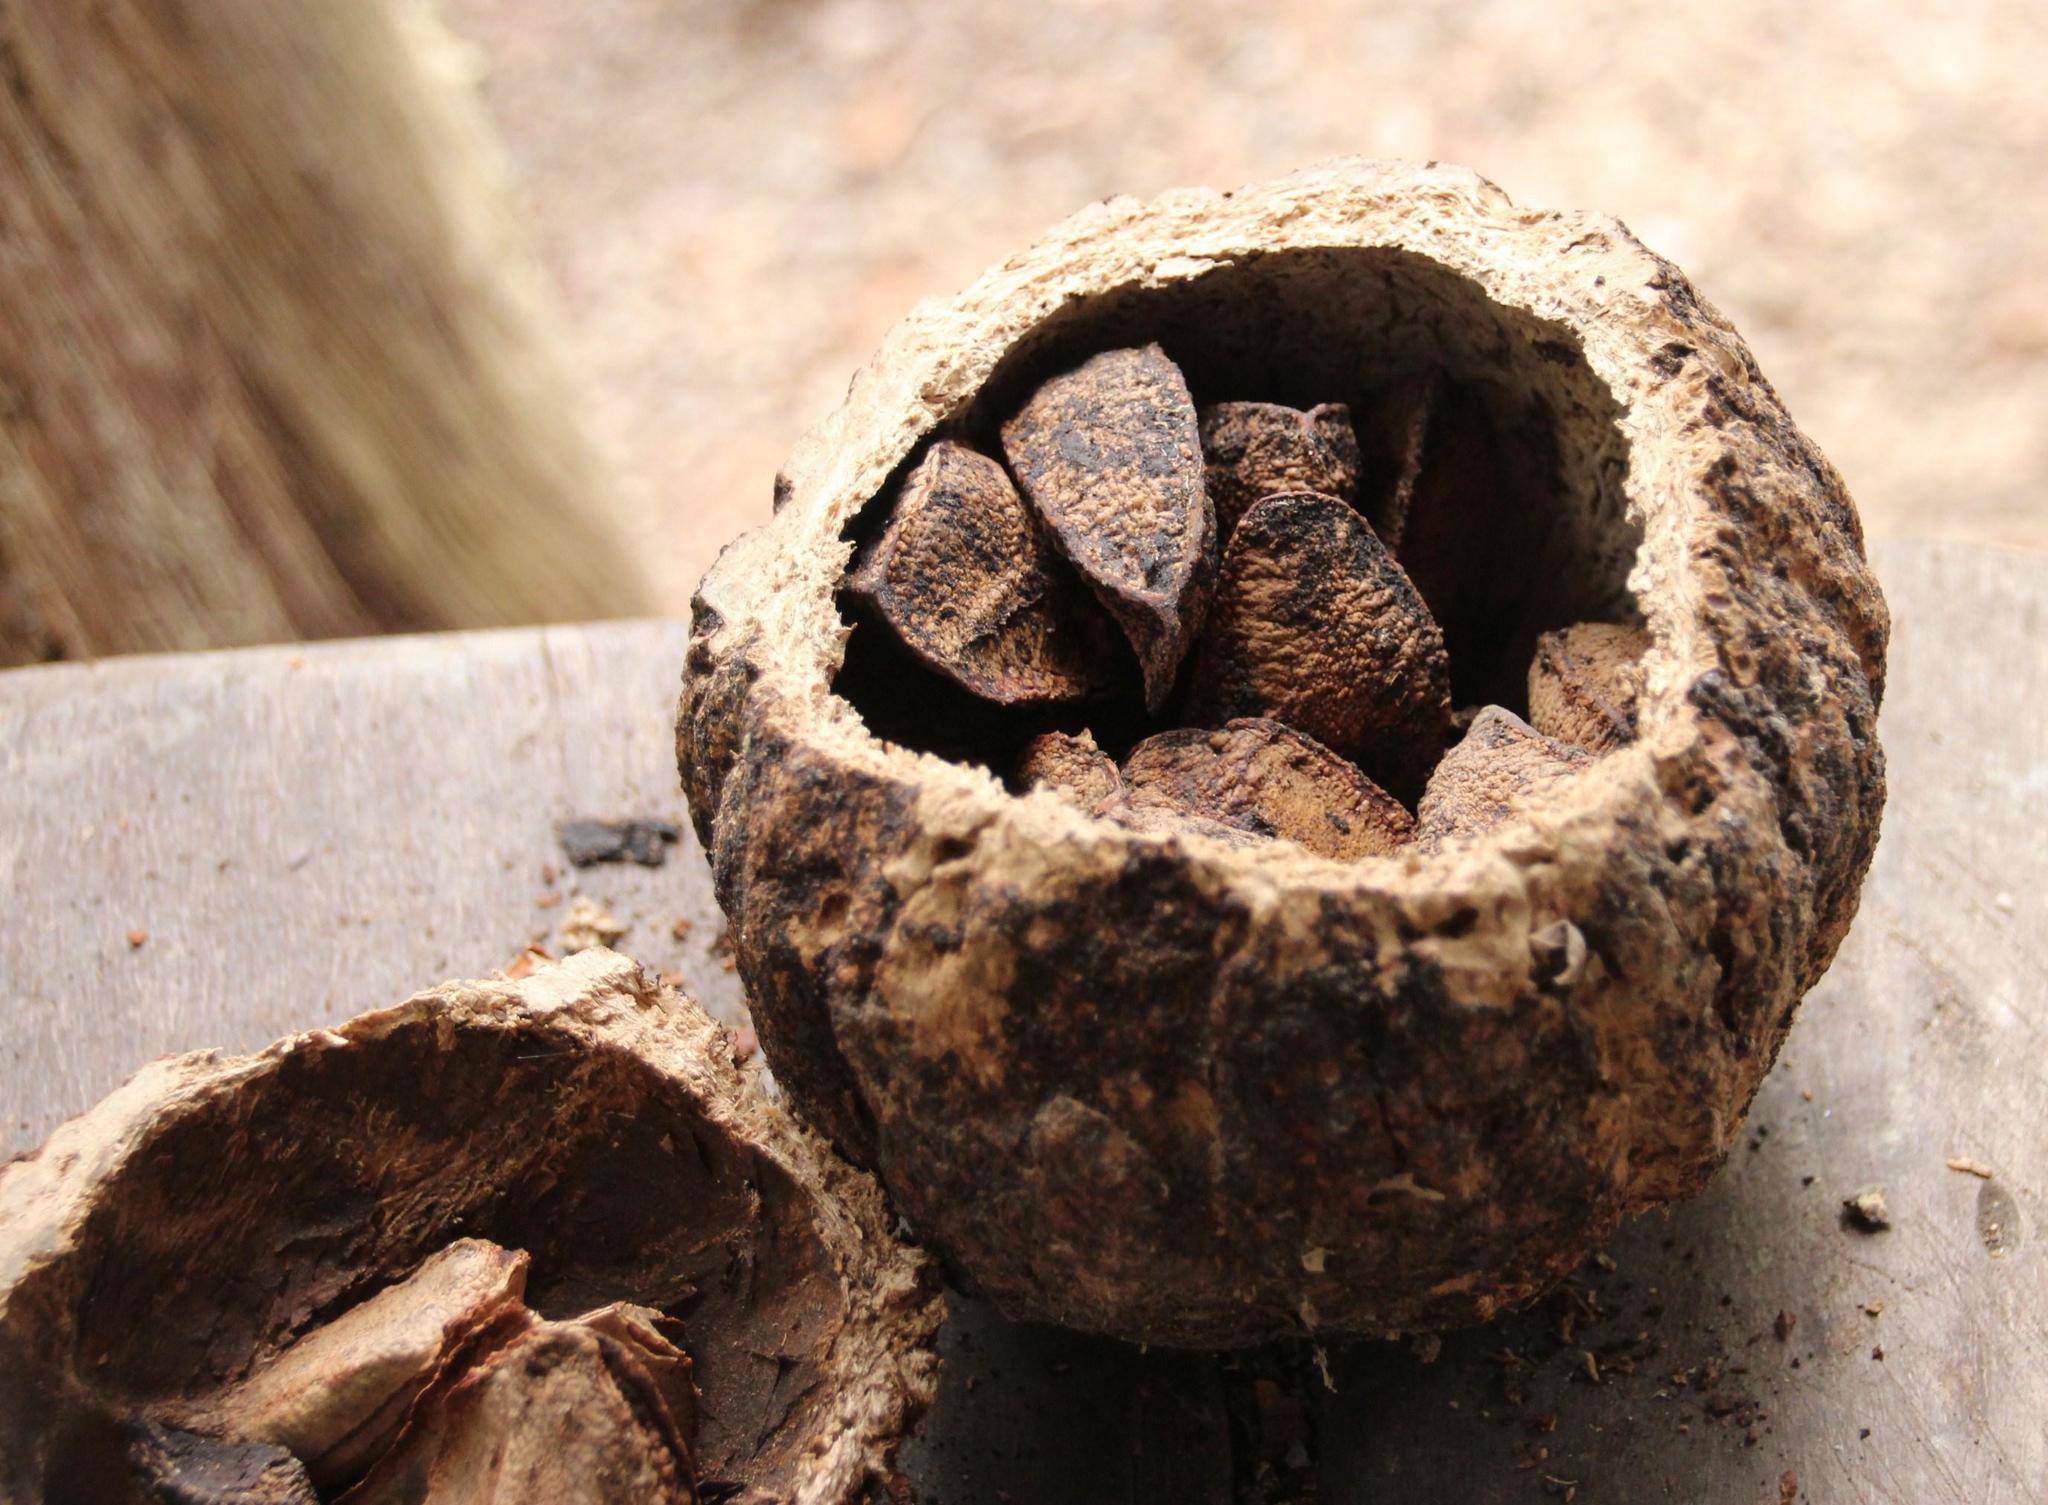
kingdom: Plantae
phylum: Tracheophyta
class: Magnoliopsida
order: Ericales
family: Lecythidaceae
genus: Bertholletia
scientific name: Bertholletia excelsa
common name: Brazil-nut tree
